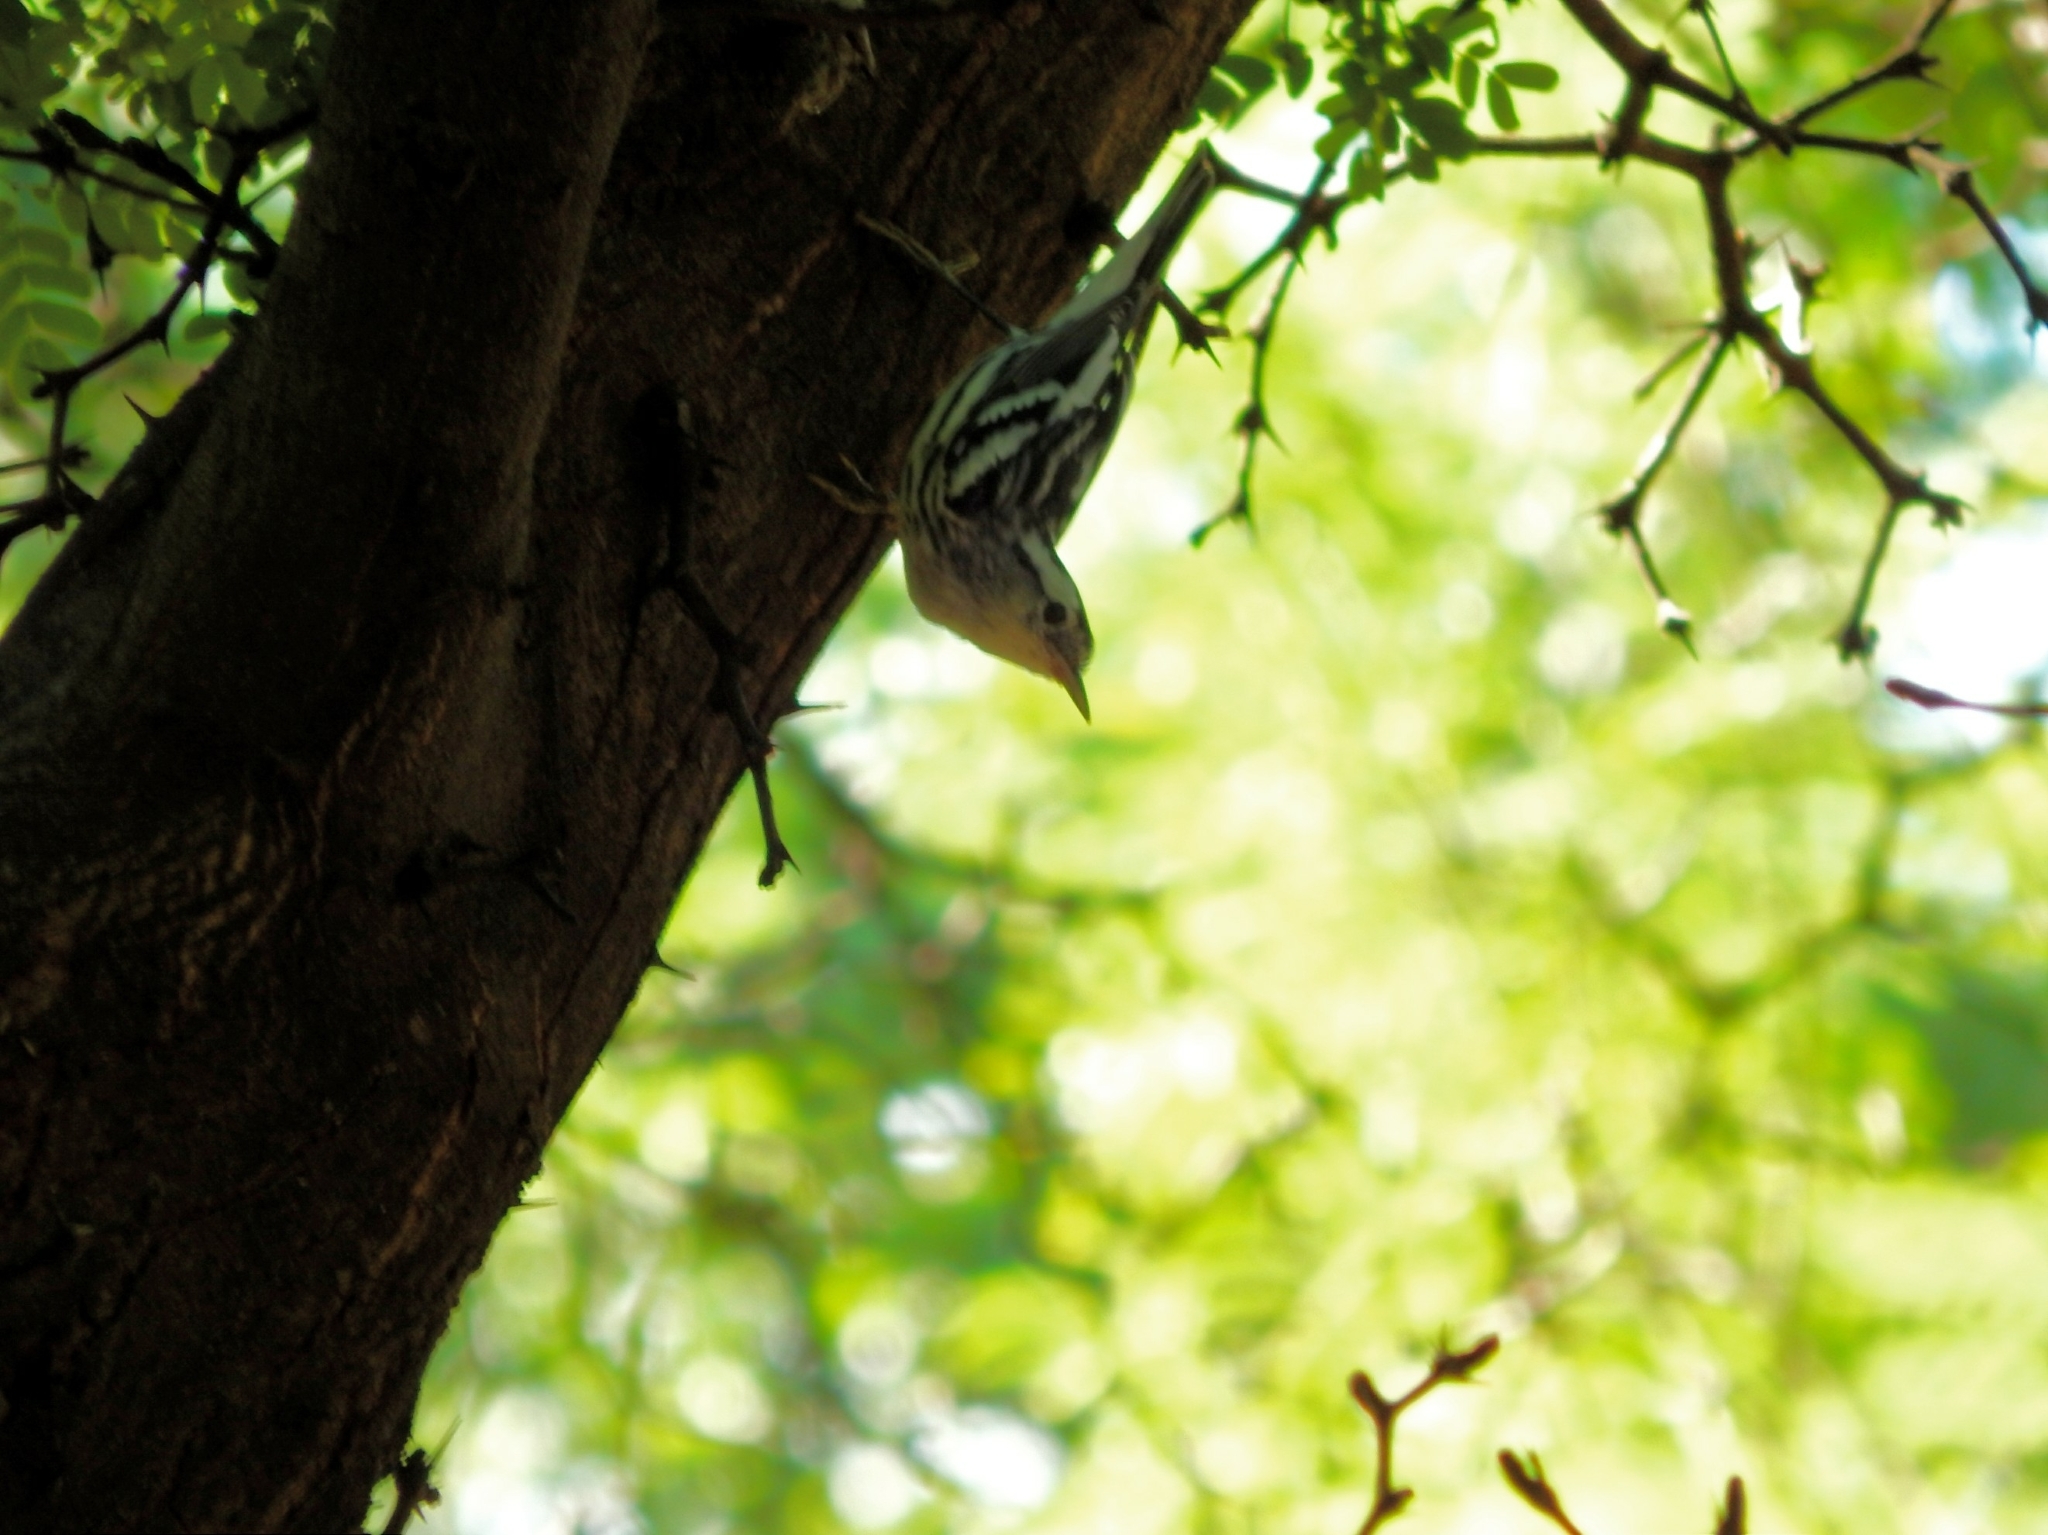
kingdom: Animalia
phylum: Chordata
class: Aves
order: Passeriformes
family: Parulidae
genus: Mniotilta
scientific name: Mniotilta varia
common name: Black-and-white warbler
